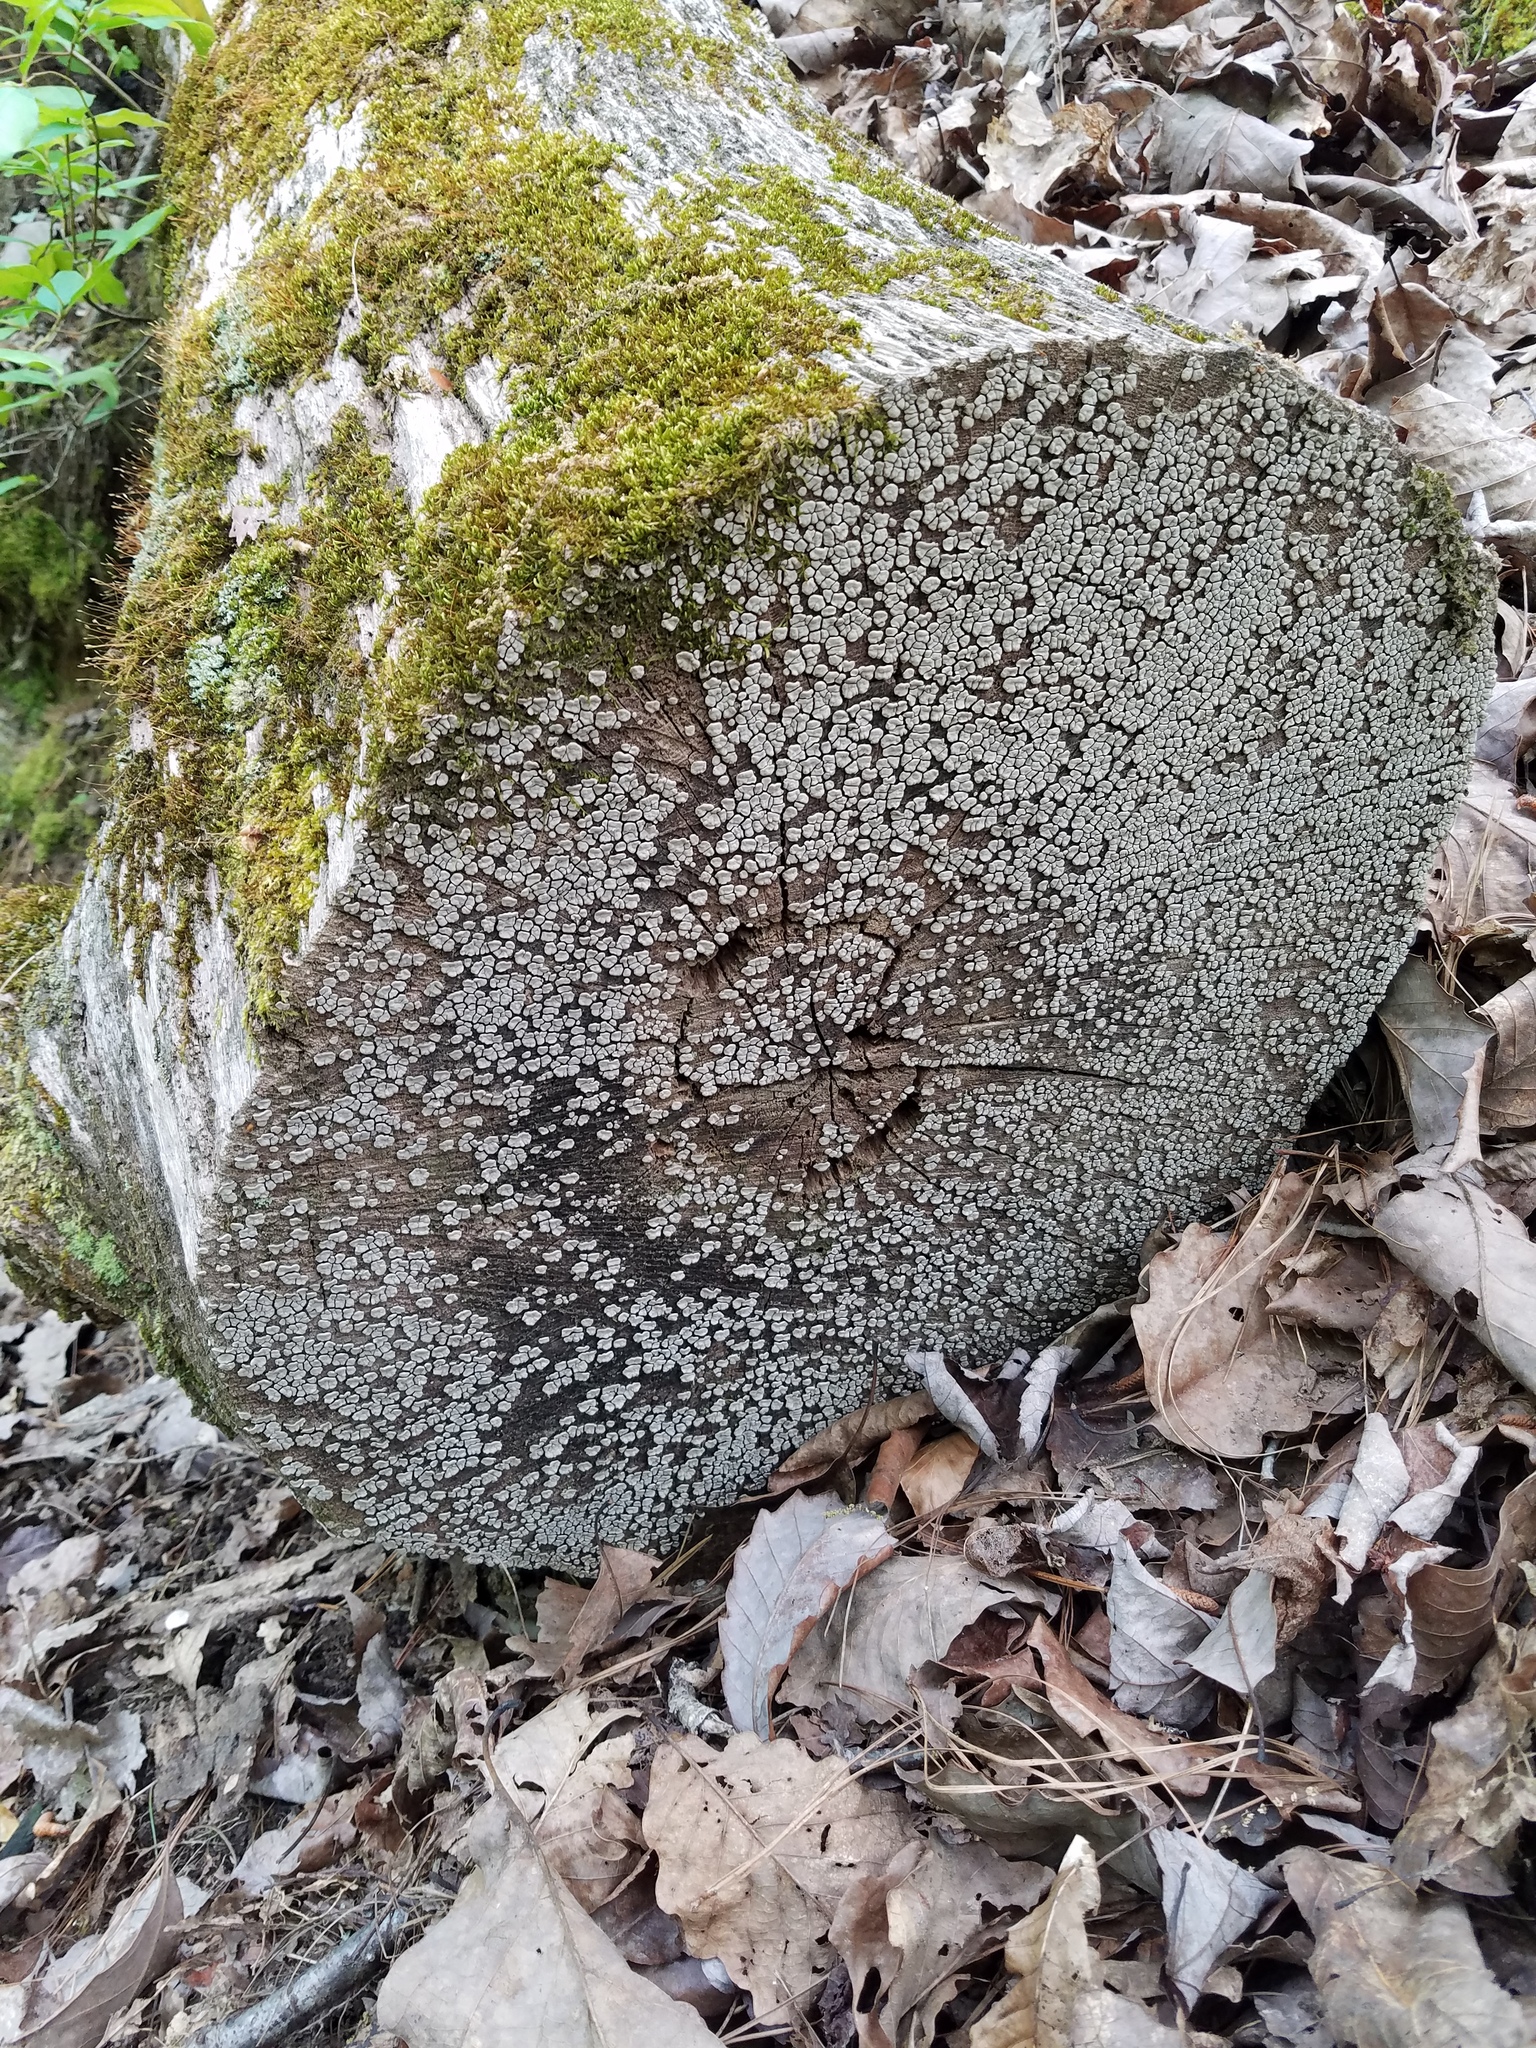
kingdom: Fungi
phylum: Basidiomycota
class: Agaricomycetes
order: Russulales
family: Stereaceae
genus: Xylobolus
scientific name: Xylobolus frustulatus
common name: Ceramic parchment
